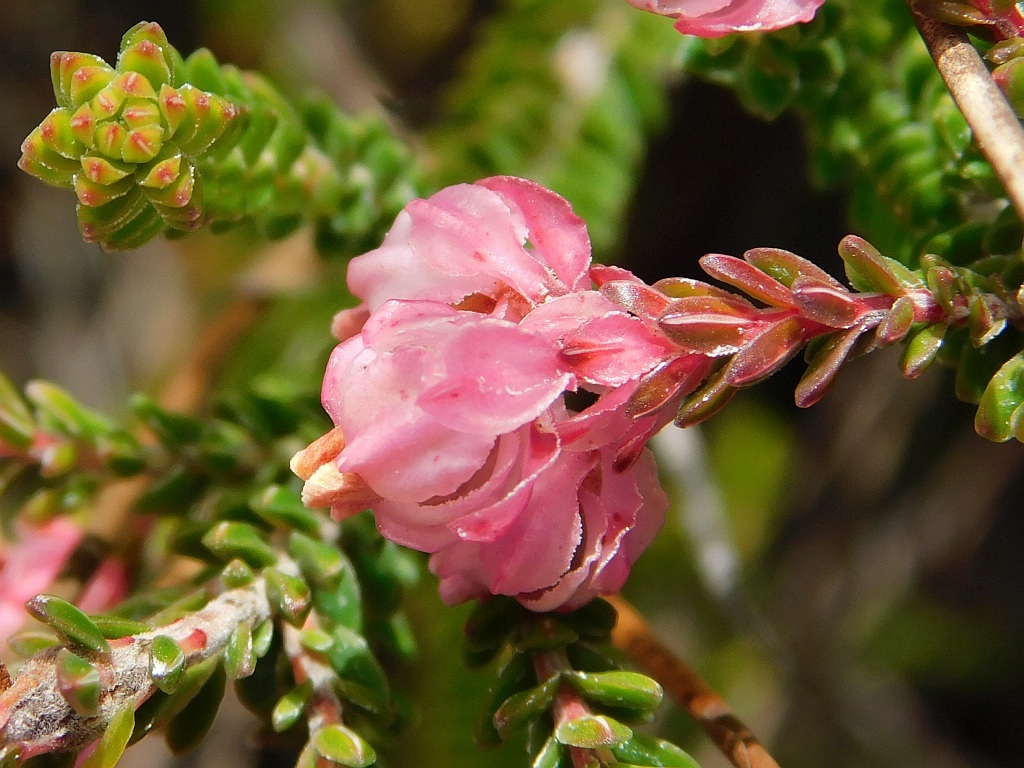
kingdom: Plantae
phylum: Tracheophyta
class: Magnoliopsida
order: Ericales
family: Ericaceae
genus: Erica
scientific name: Erica tegulifolia
